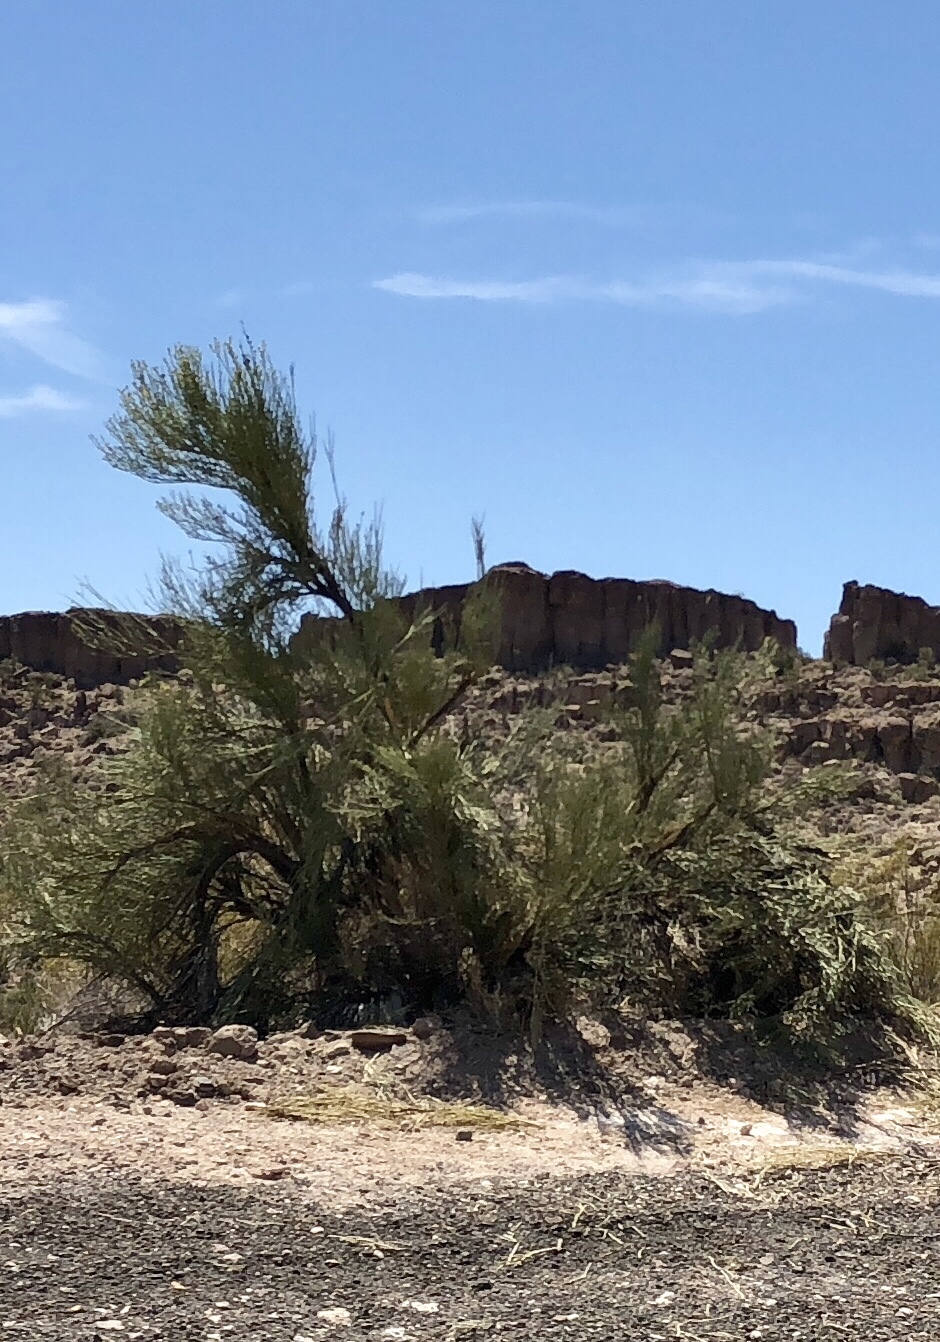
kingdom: Plantae
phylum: Tracheophyta
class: Magnoliopsida
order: Celastrales
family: Celastraceae
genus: Canotia
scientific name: Canotia holacantha
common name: Crucifixion thorns
